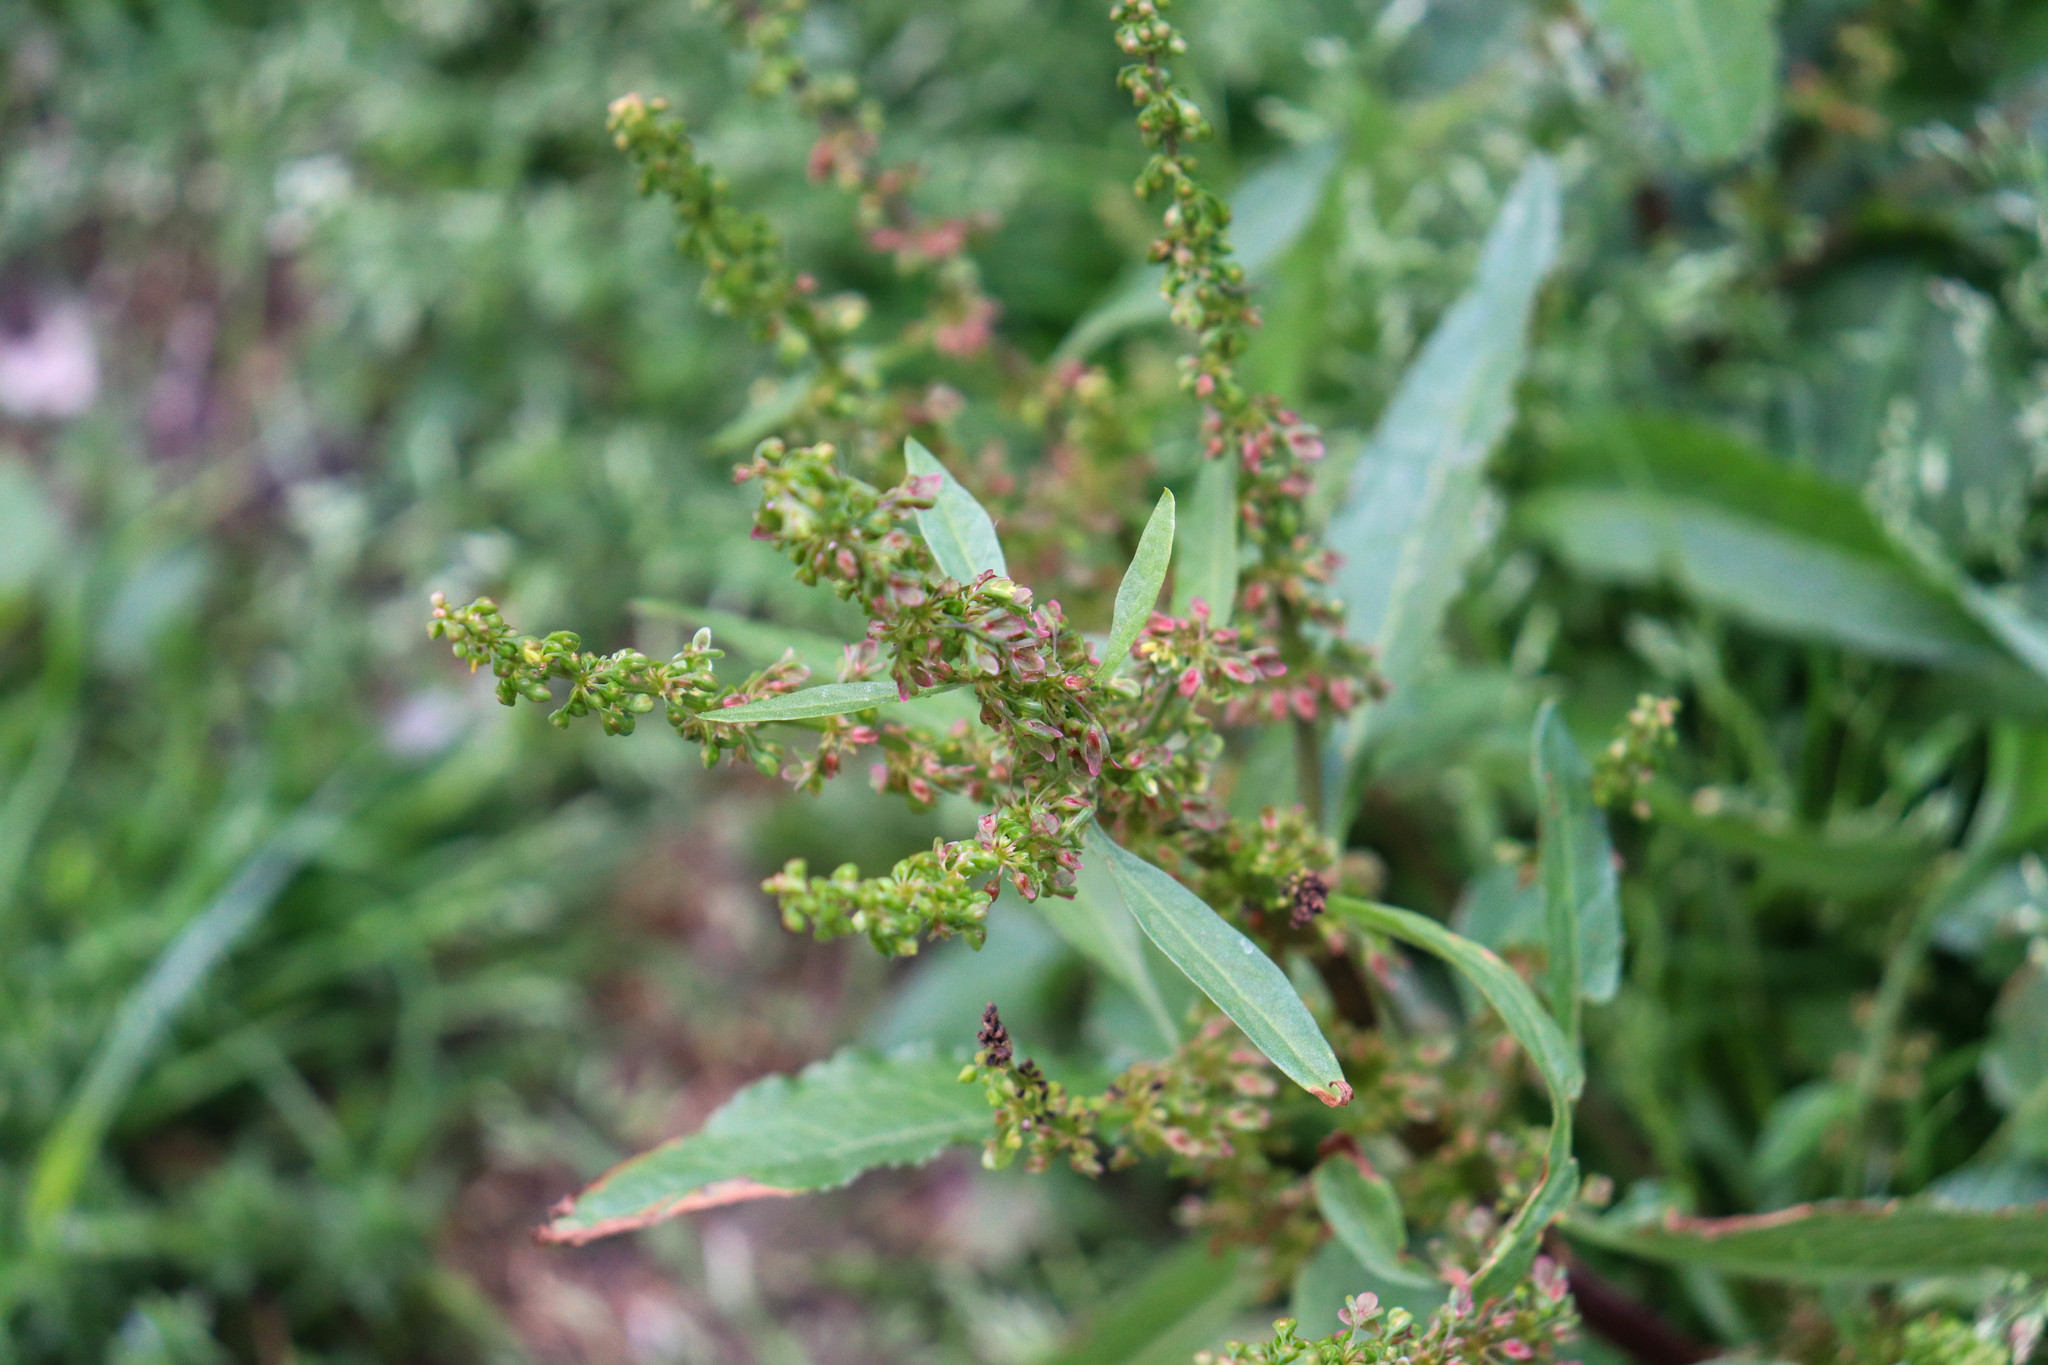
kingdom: Plantae
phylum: Tracheophyta
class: Magnoliopsida
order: Caryophyllales
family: Polygonaceae
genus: Rumex
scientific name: Rumex obtusifolius
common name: Bitter dock
